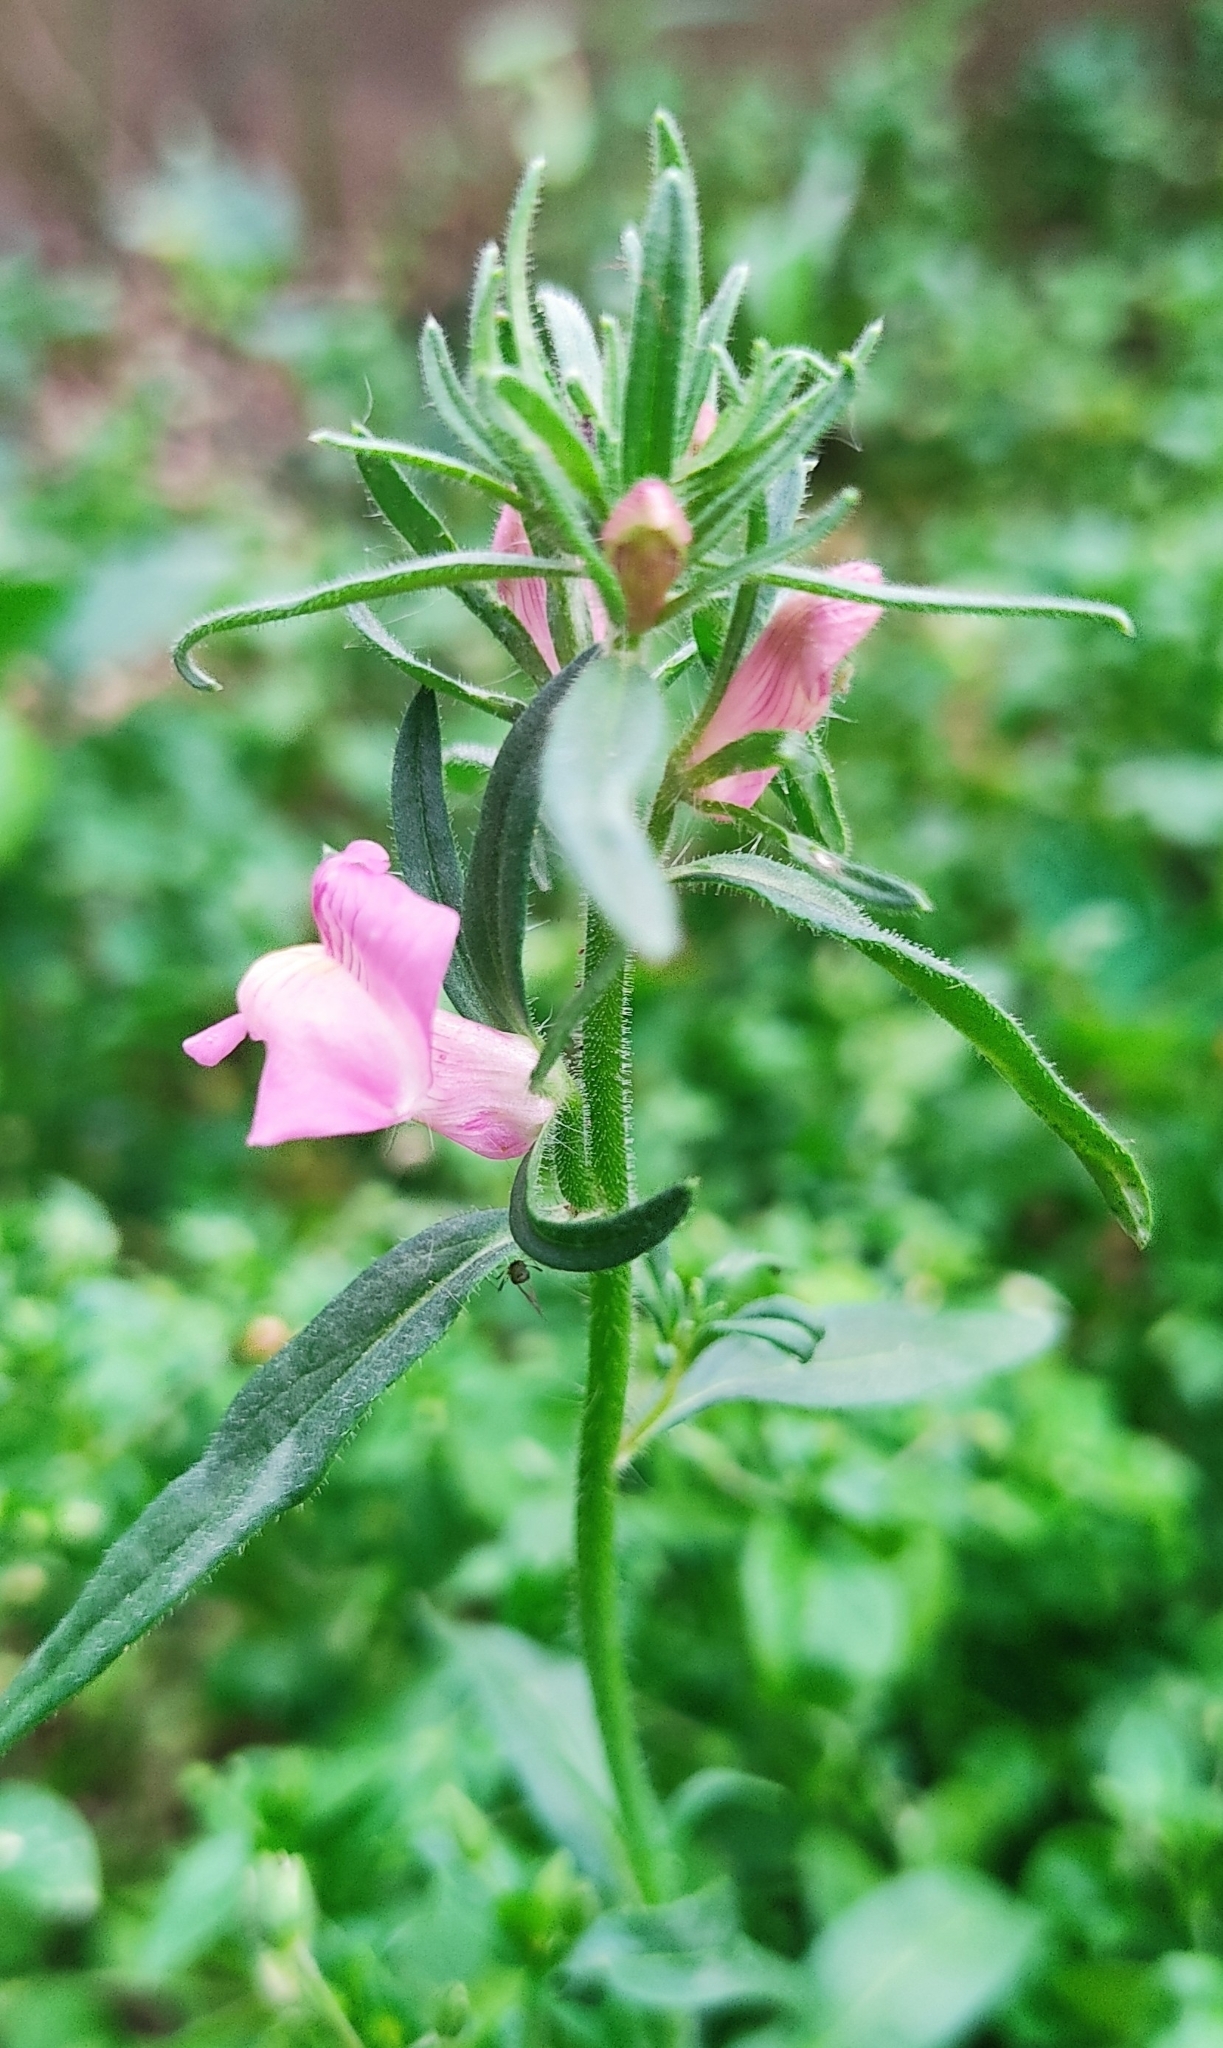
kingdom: Plantae
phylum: Tracheophyta
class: Magnoliopsida
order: Lamiales
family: Plantaginaceae
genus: Misopates
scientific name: Misopates orontium
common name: Weasel's-snout
